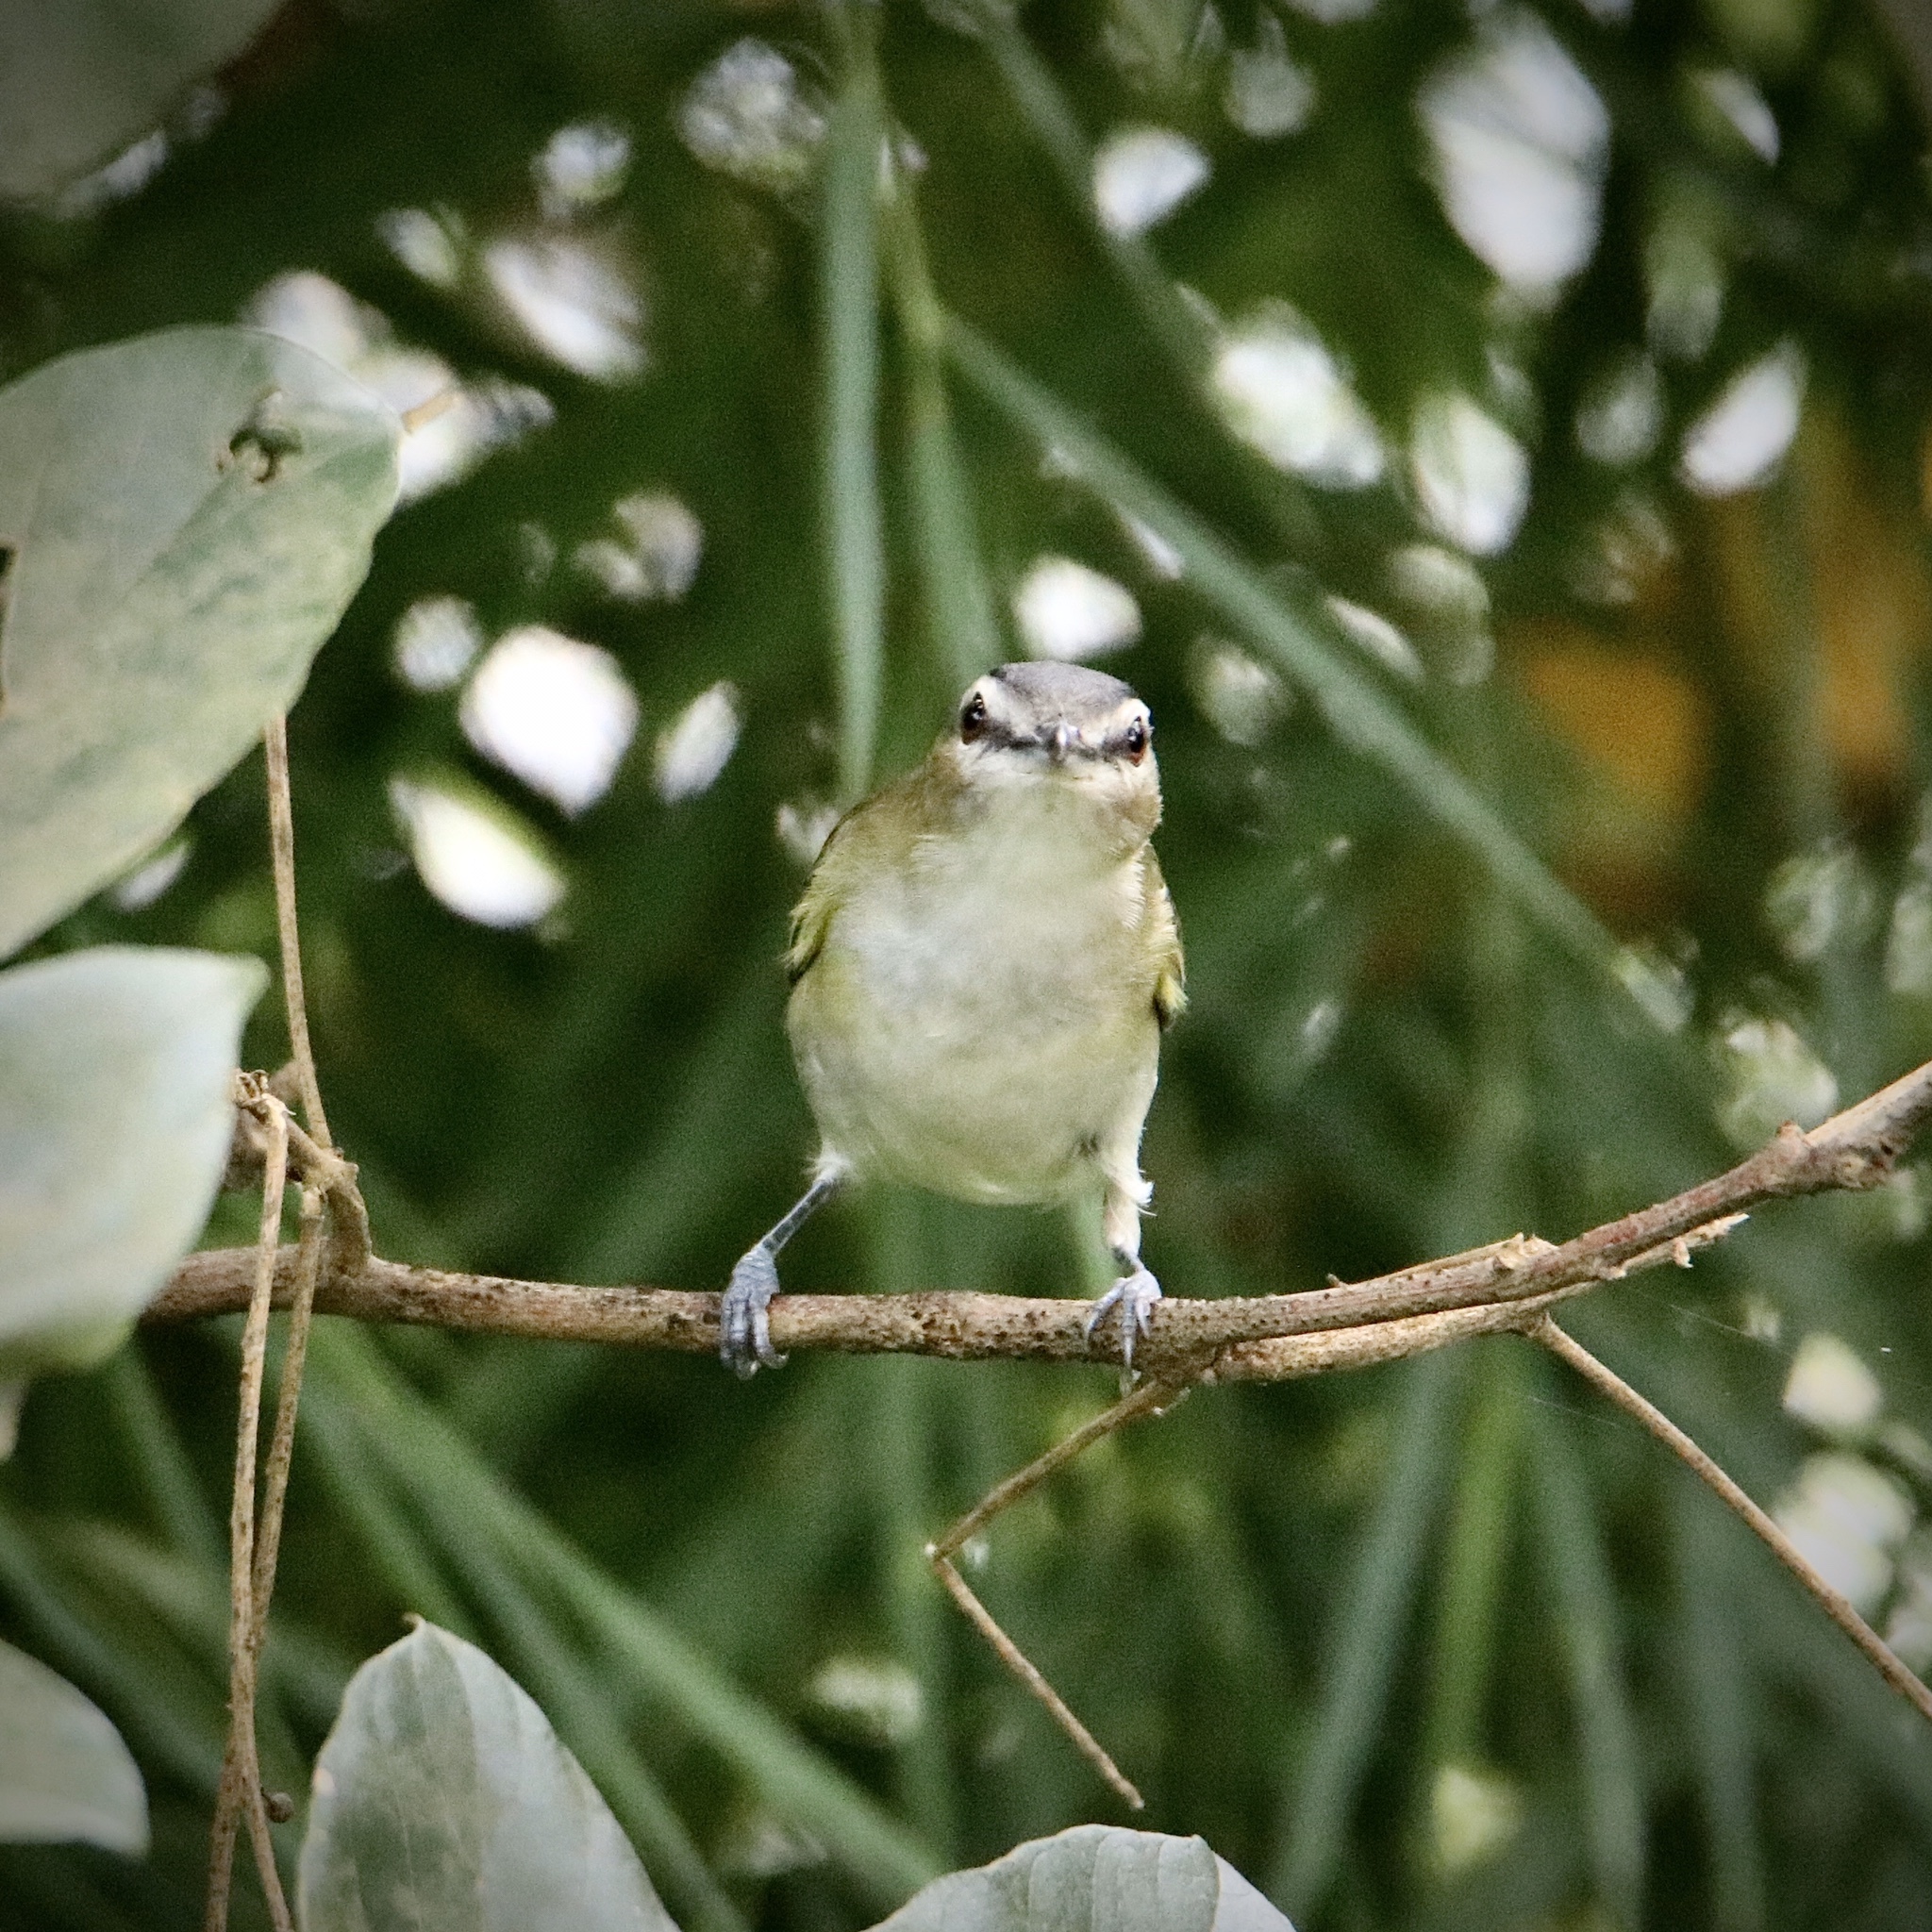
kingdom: Animalia
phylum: Chordata
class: Aves
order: Passeriformes
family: Vireonidae
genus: Vireo
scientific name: Vireo olivaceus
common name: Red-eyed vireo
